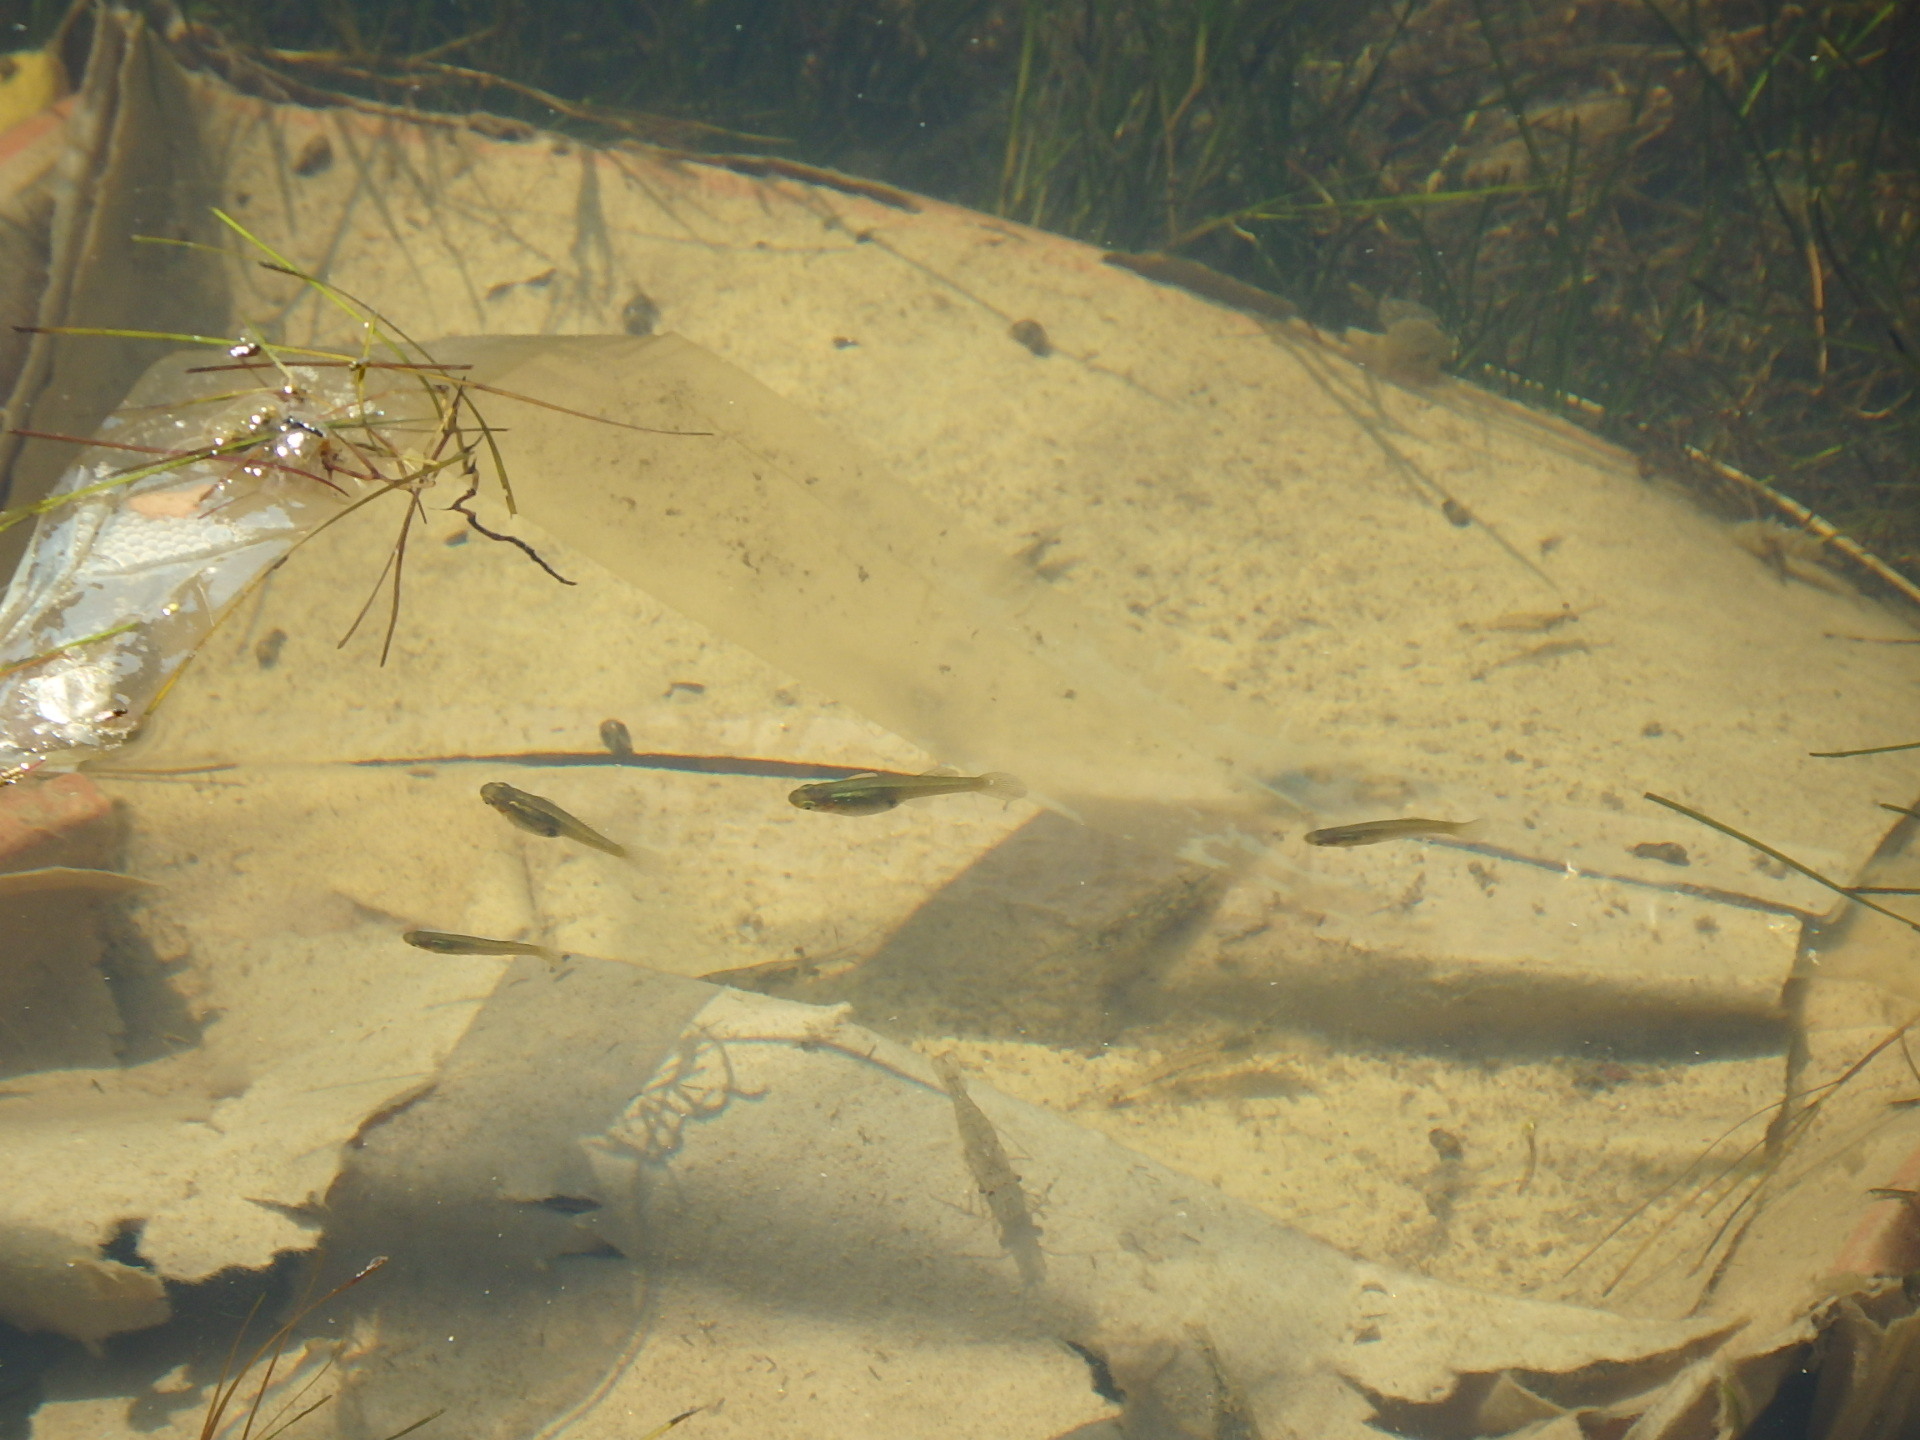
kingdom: Animalia
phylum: Chordata
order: Cyprinodontiformes
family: Poeciliidae
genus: Gambusia
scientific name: Gambusia holbrooki
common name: Eastern mosquitofish
